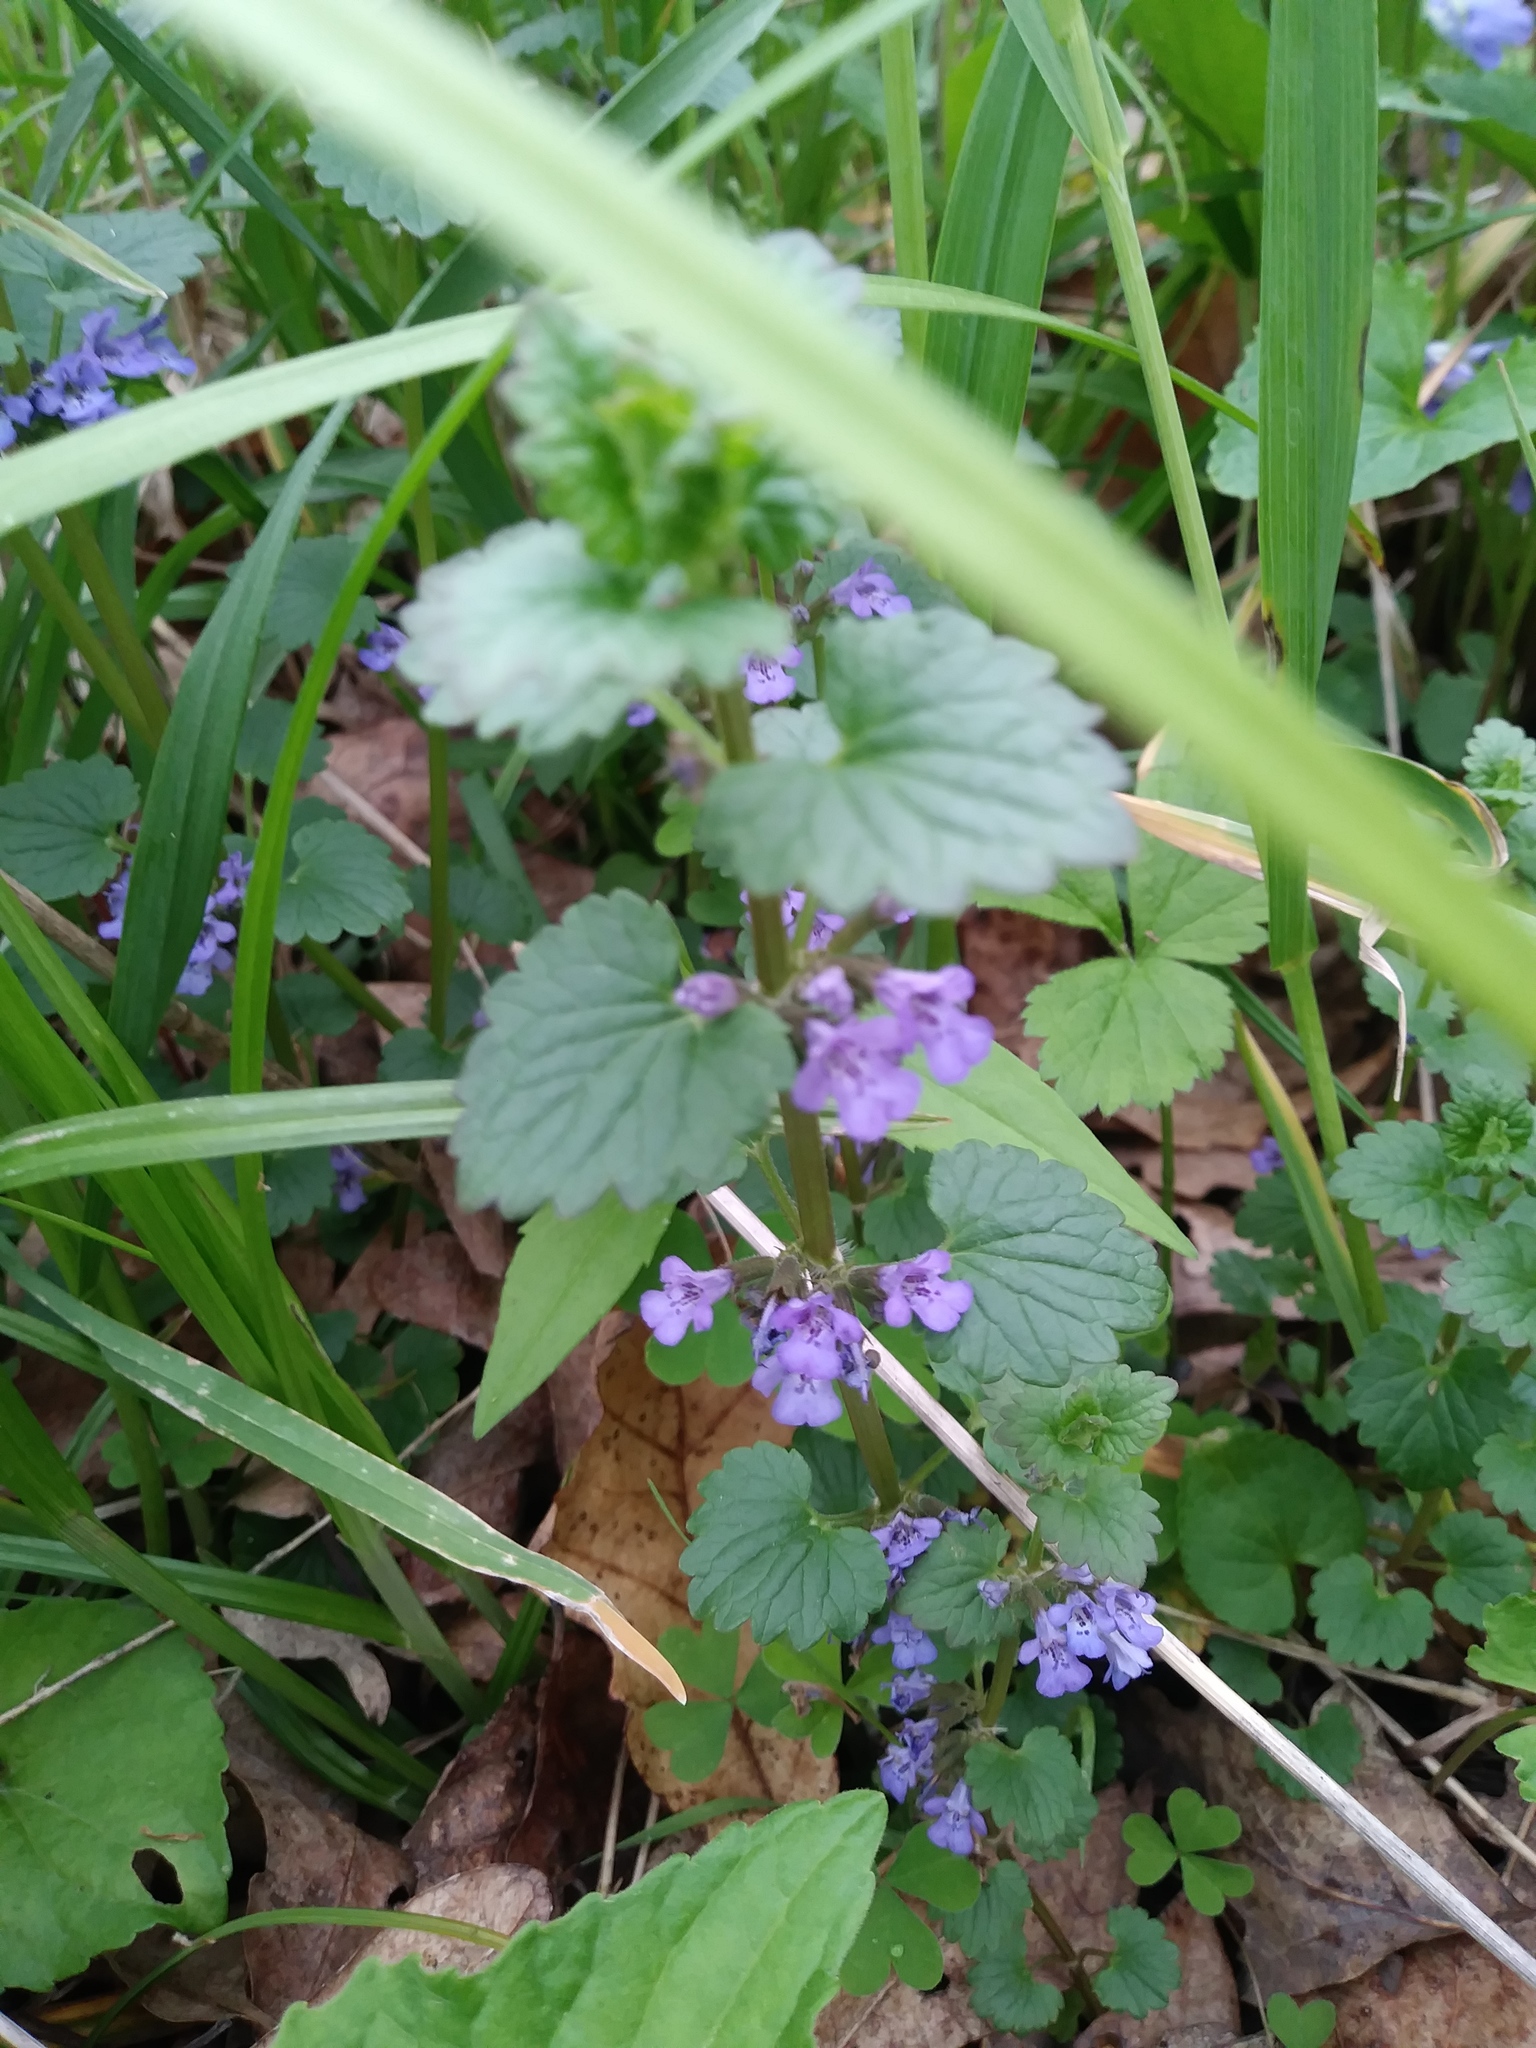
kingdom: Plantae
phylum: Tracheophyta
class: Magnoliopsida
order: Lamiales
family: Lamiaceae
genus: Glechoma
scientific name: Glechoma hederacea
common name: Ground ivy
